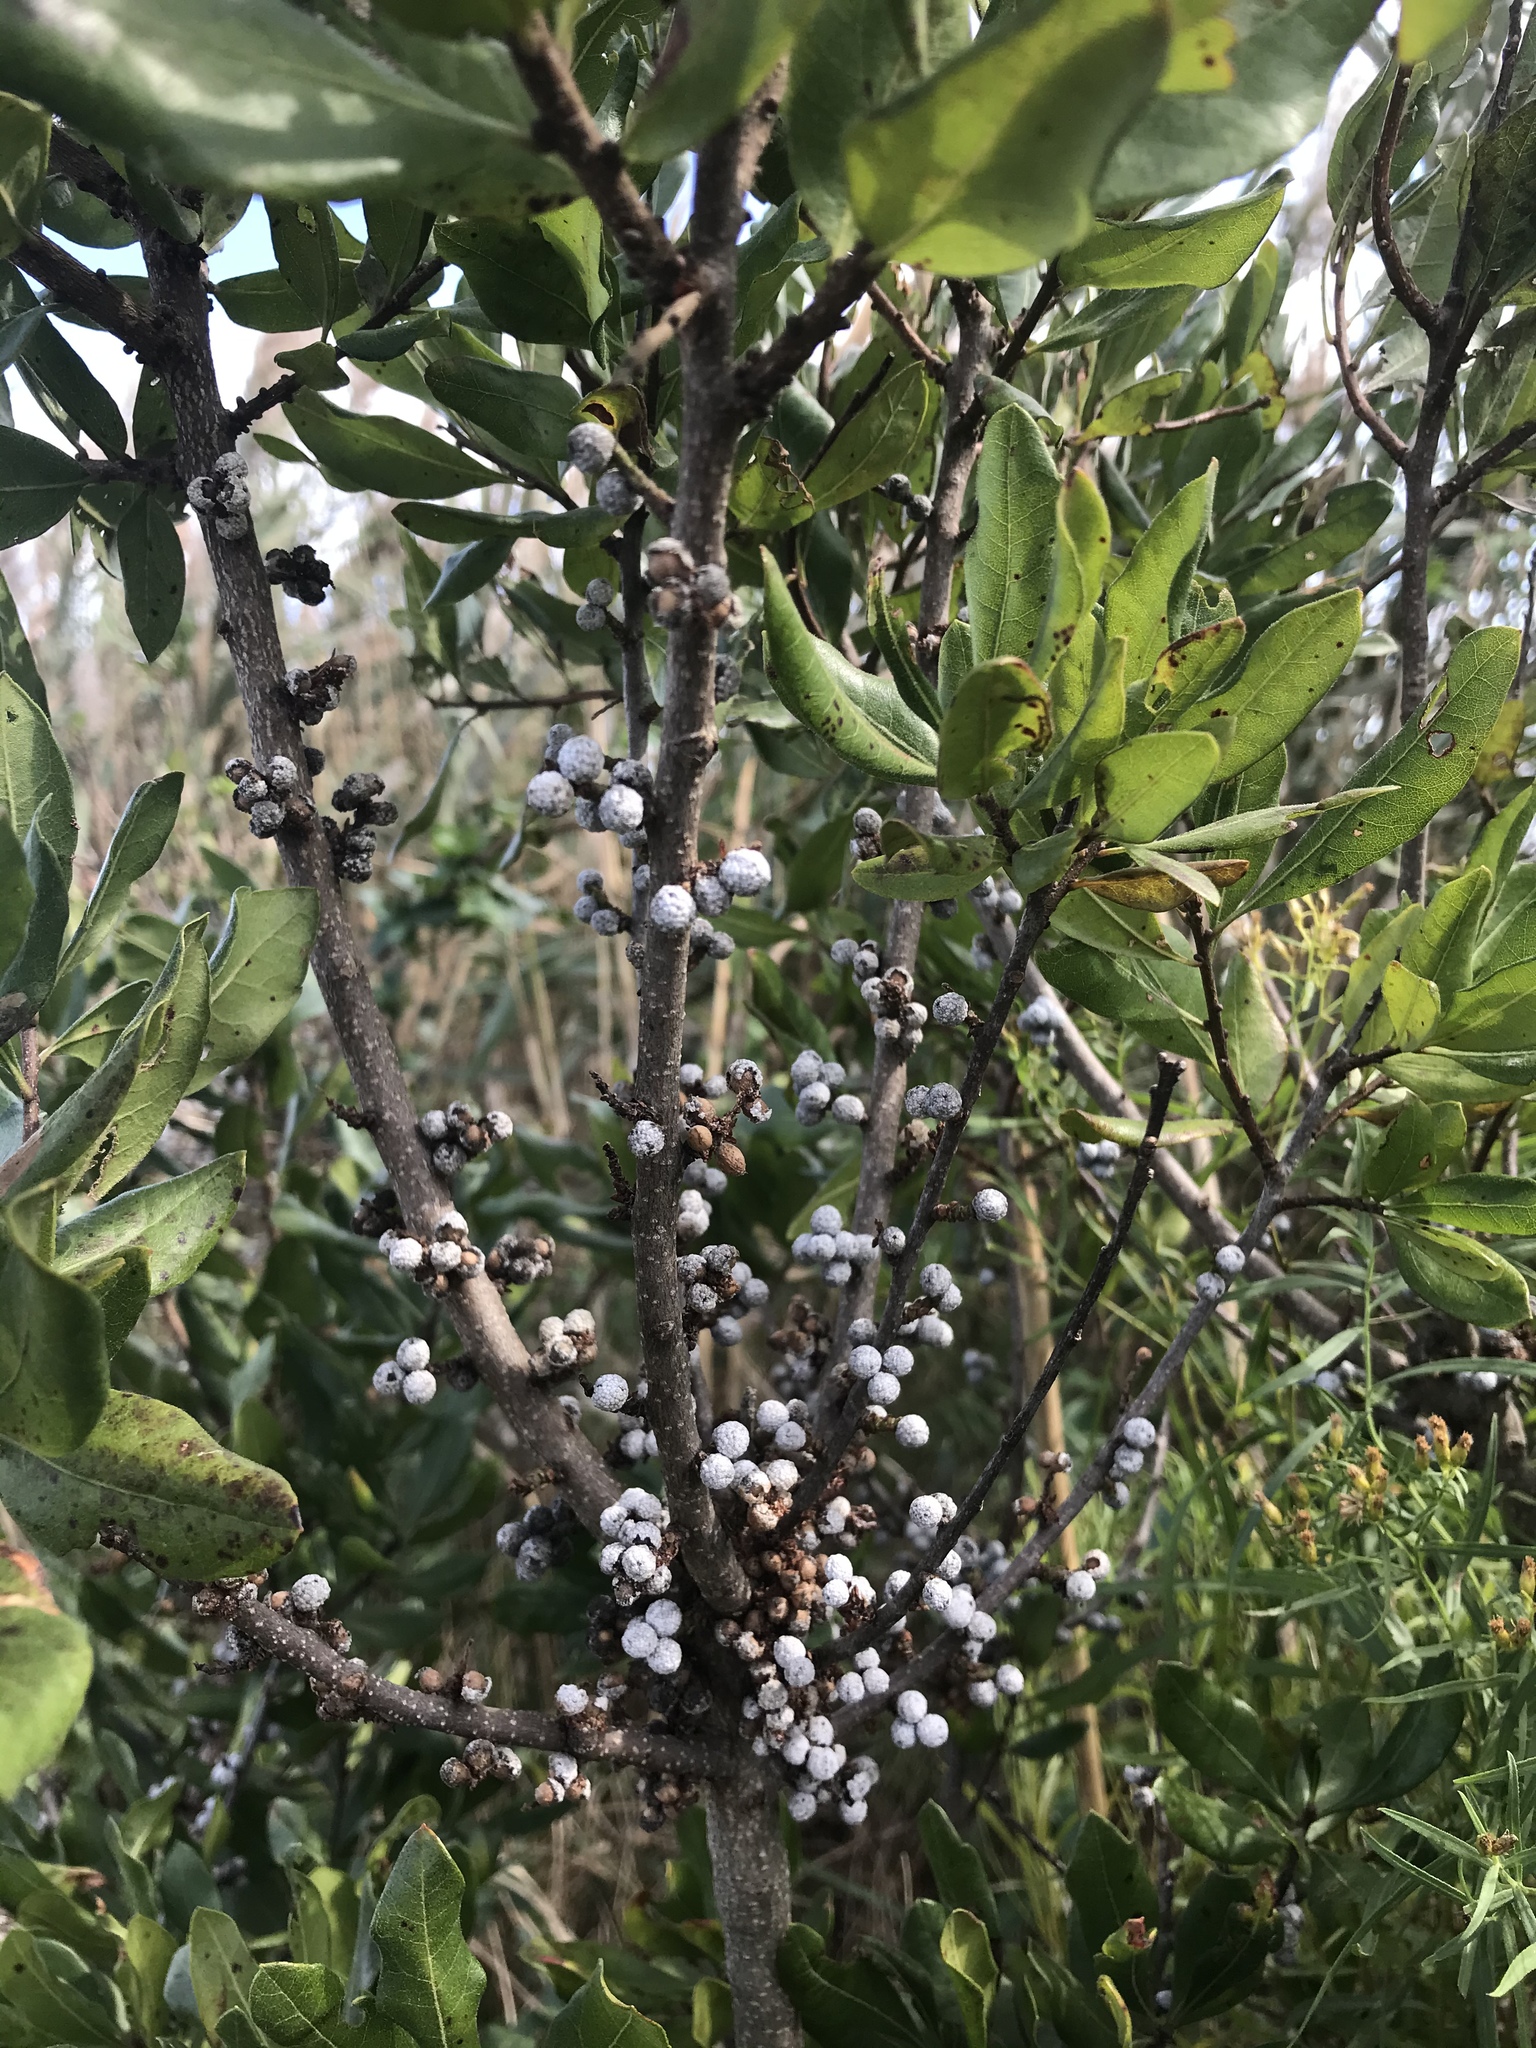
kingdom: Plantae
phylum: Tracheophyta
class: Magnoliopsida
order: Fagales
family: Myricaceae
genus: Morella
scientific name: Morella pensylvanica
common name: Northern bayberry
